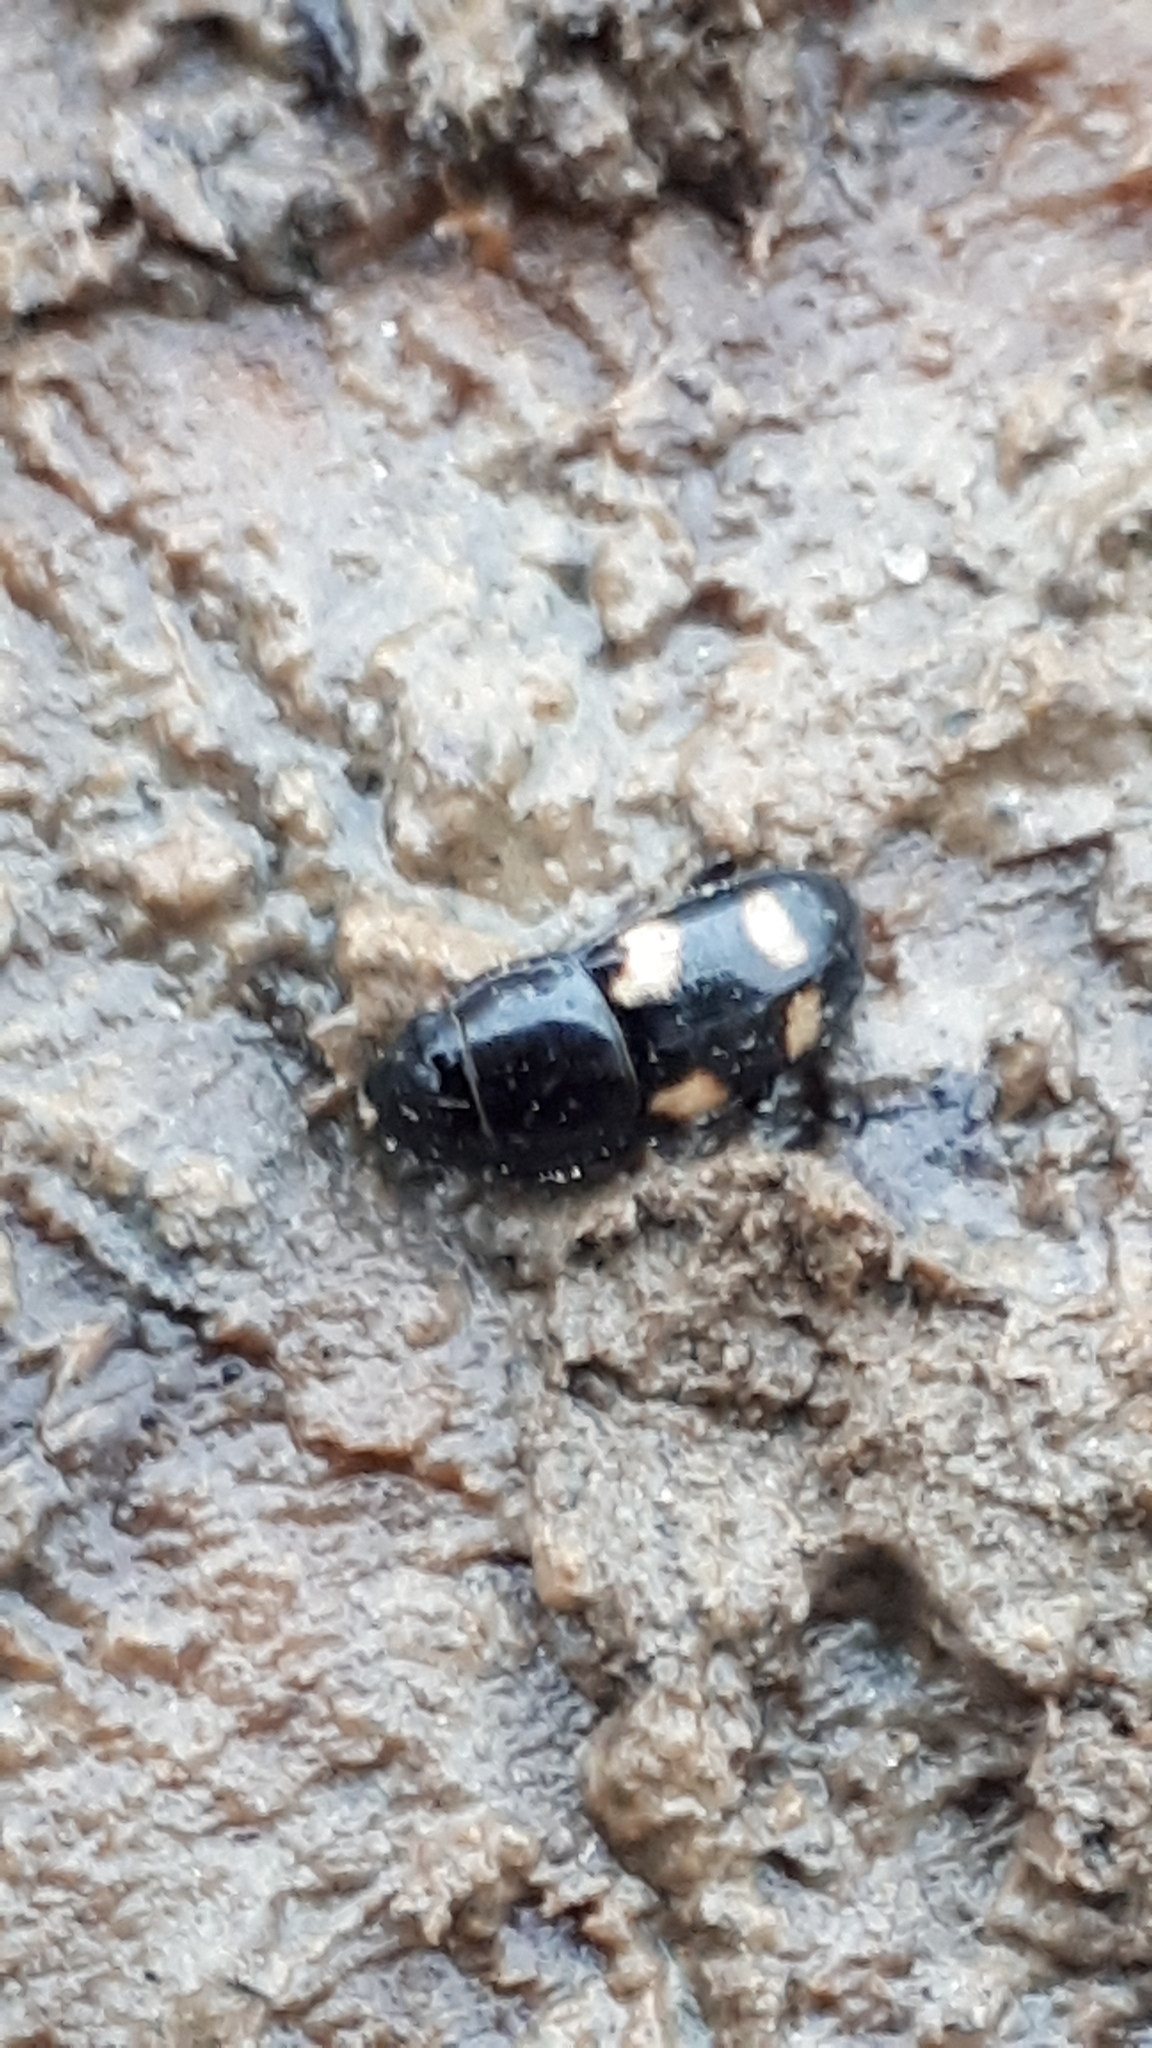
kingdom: Animalia
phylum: Arthropoda
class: Insecta
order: Coleoptera
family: Nitidulidae
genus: Glischrochilus
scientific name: Glischrochilus quadrisignatus
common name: Picnic beetle
